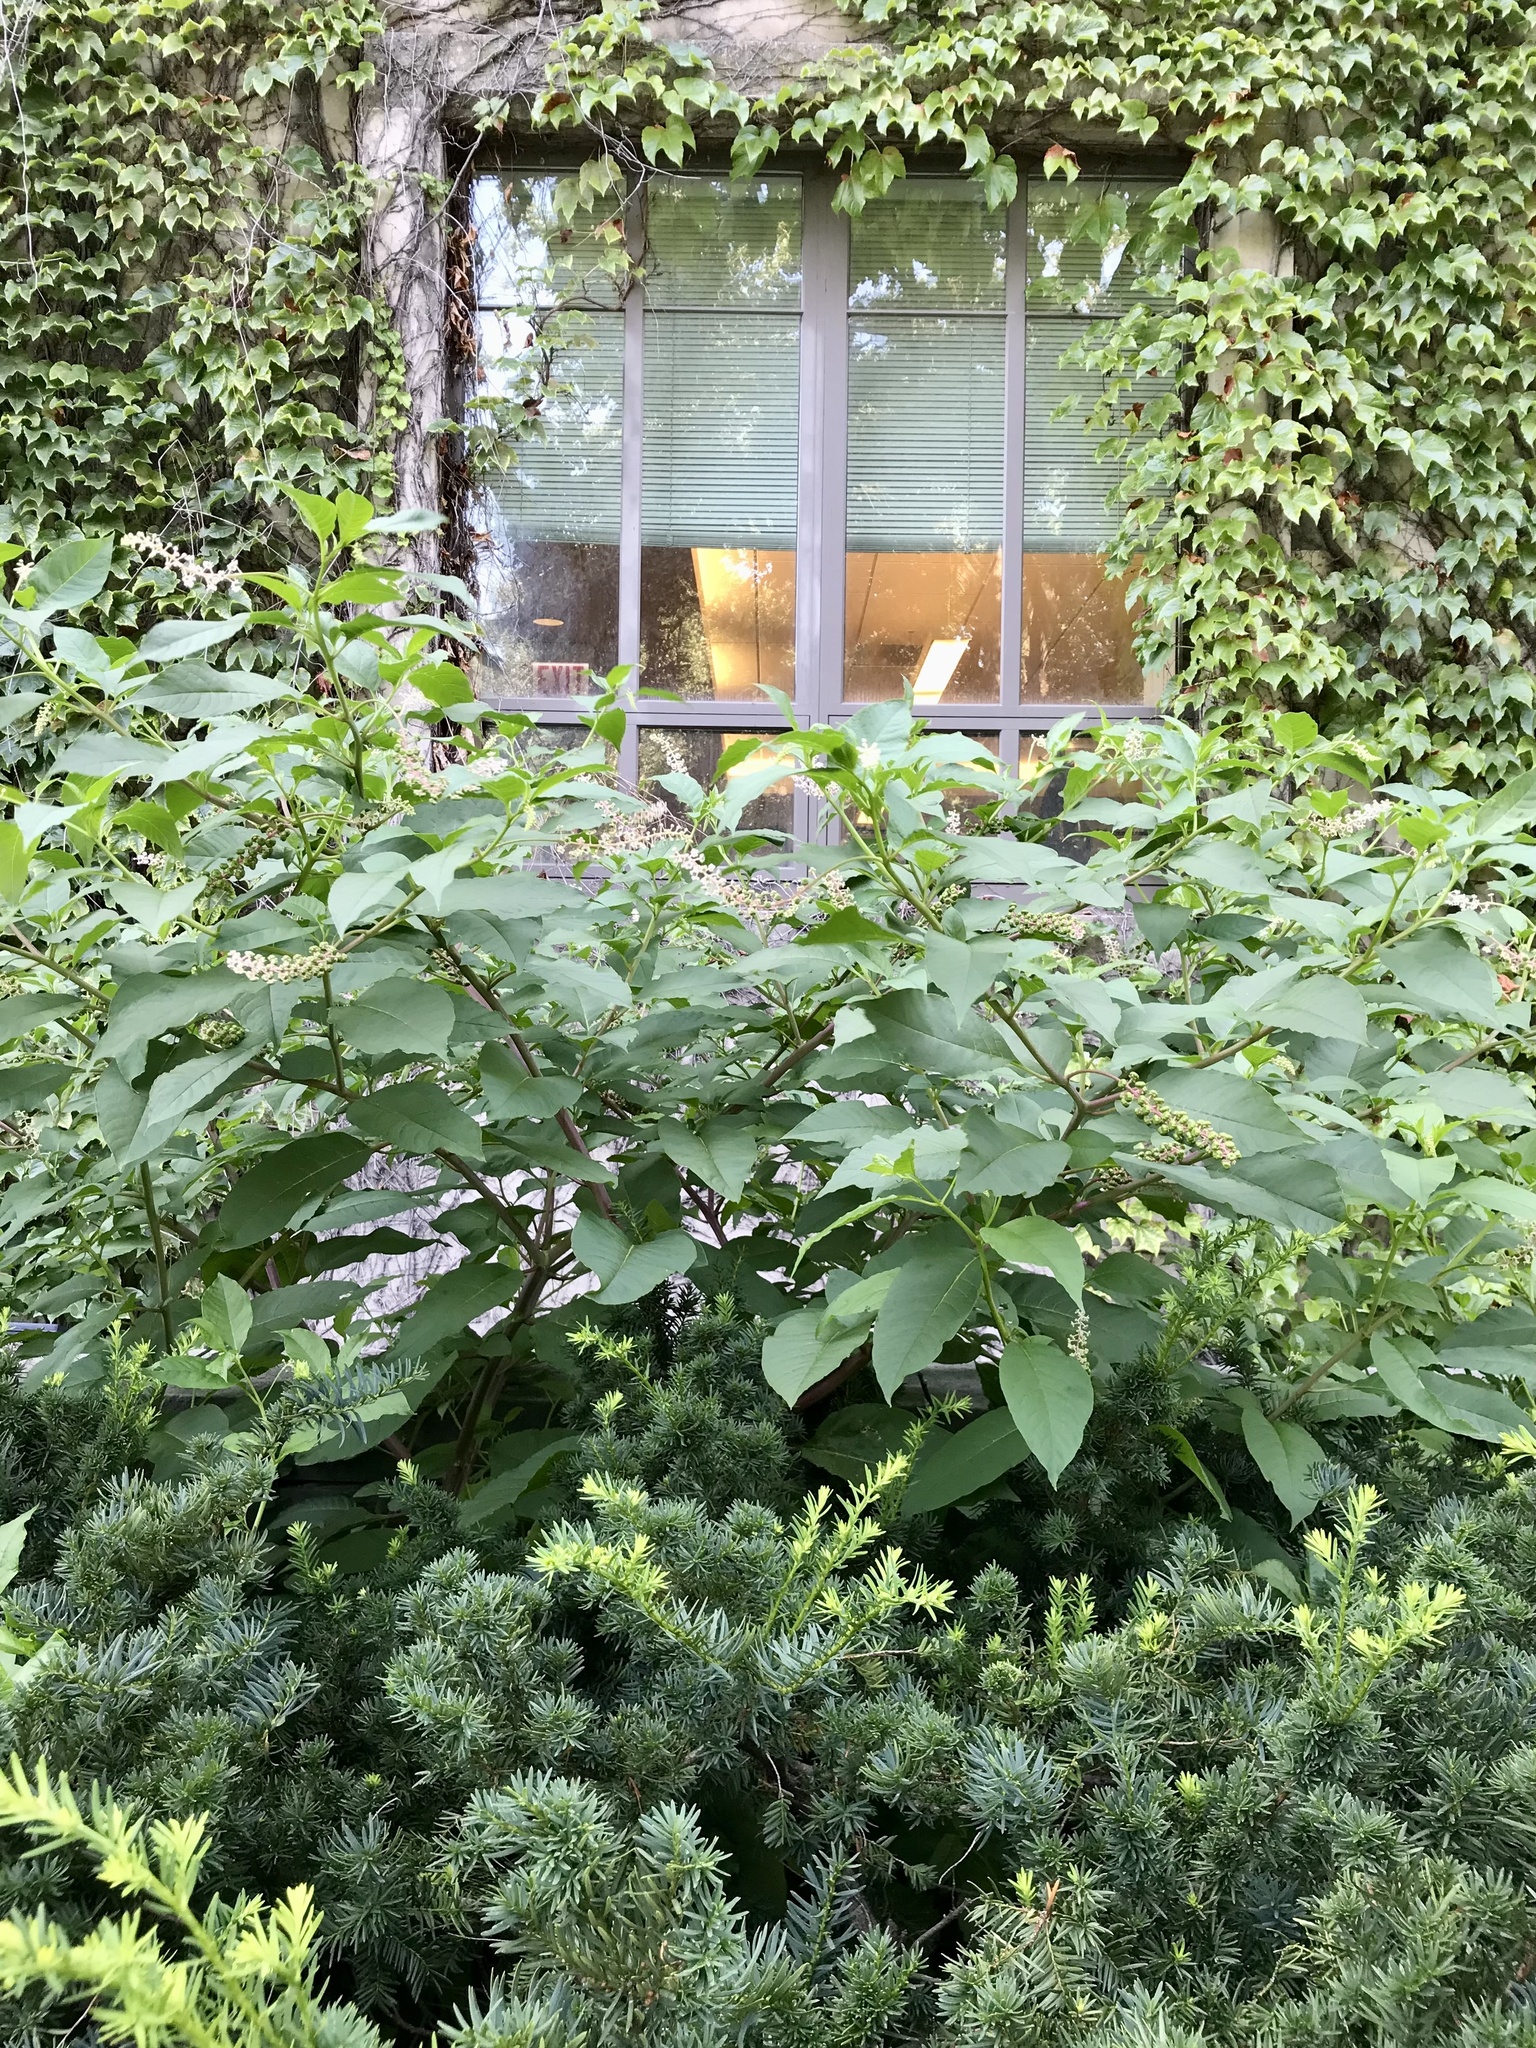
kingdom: Plantae
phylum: Tracheophyta
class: Magnoliopsida
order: Caryophyllales
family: Phytolaccaceae
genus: Phytolacca
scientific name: Phytolacca americana
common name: American pokeweed
